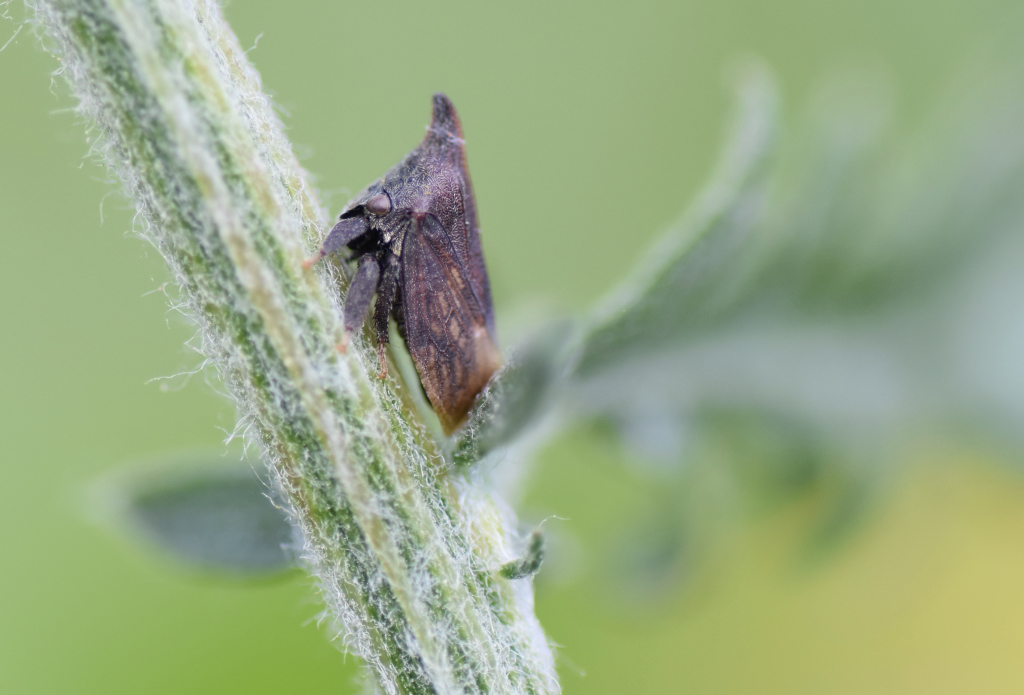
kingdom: Animalia
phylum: Arthropoda
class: Insecta
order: Hemiptera
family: Membracidae
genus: Enchenopa
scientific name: Enchenopa latipes
